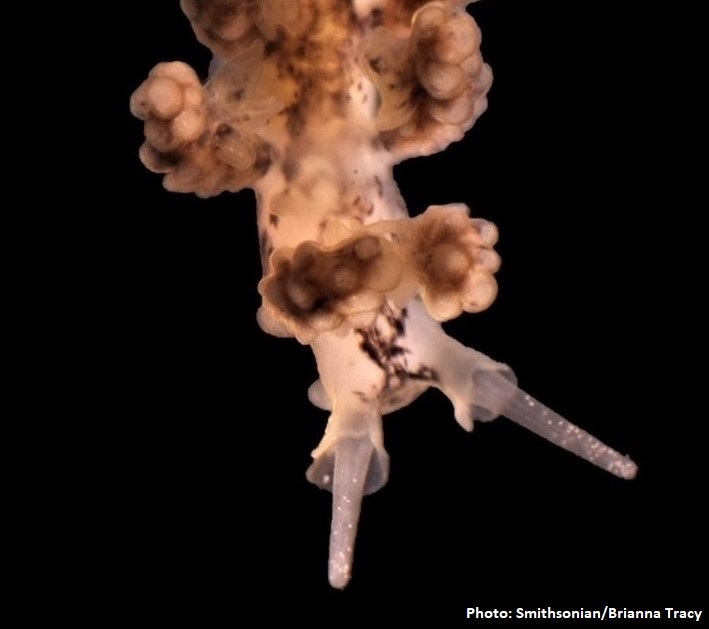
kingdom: Animalia
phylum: Mollusca
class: Gastropoda
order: Nudibranchia
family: Dotidae
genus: Doto
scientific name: Doto kya
